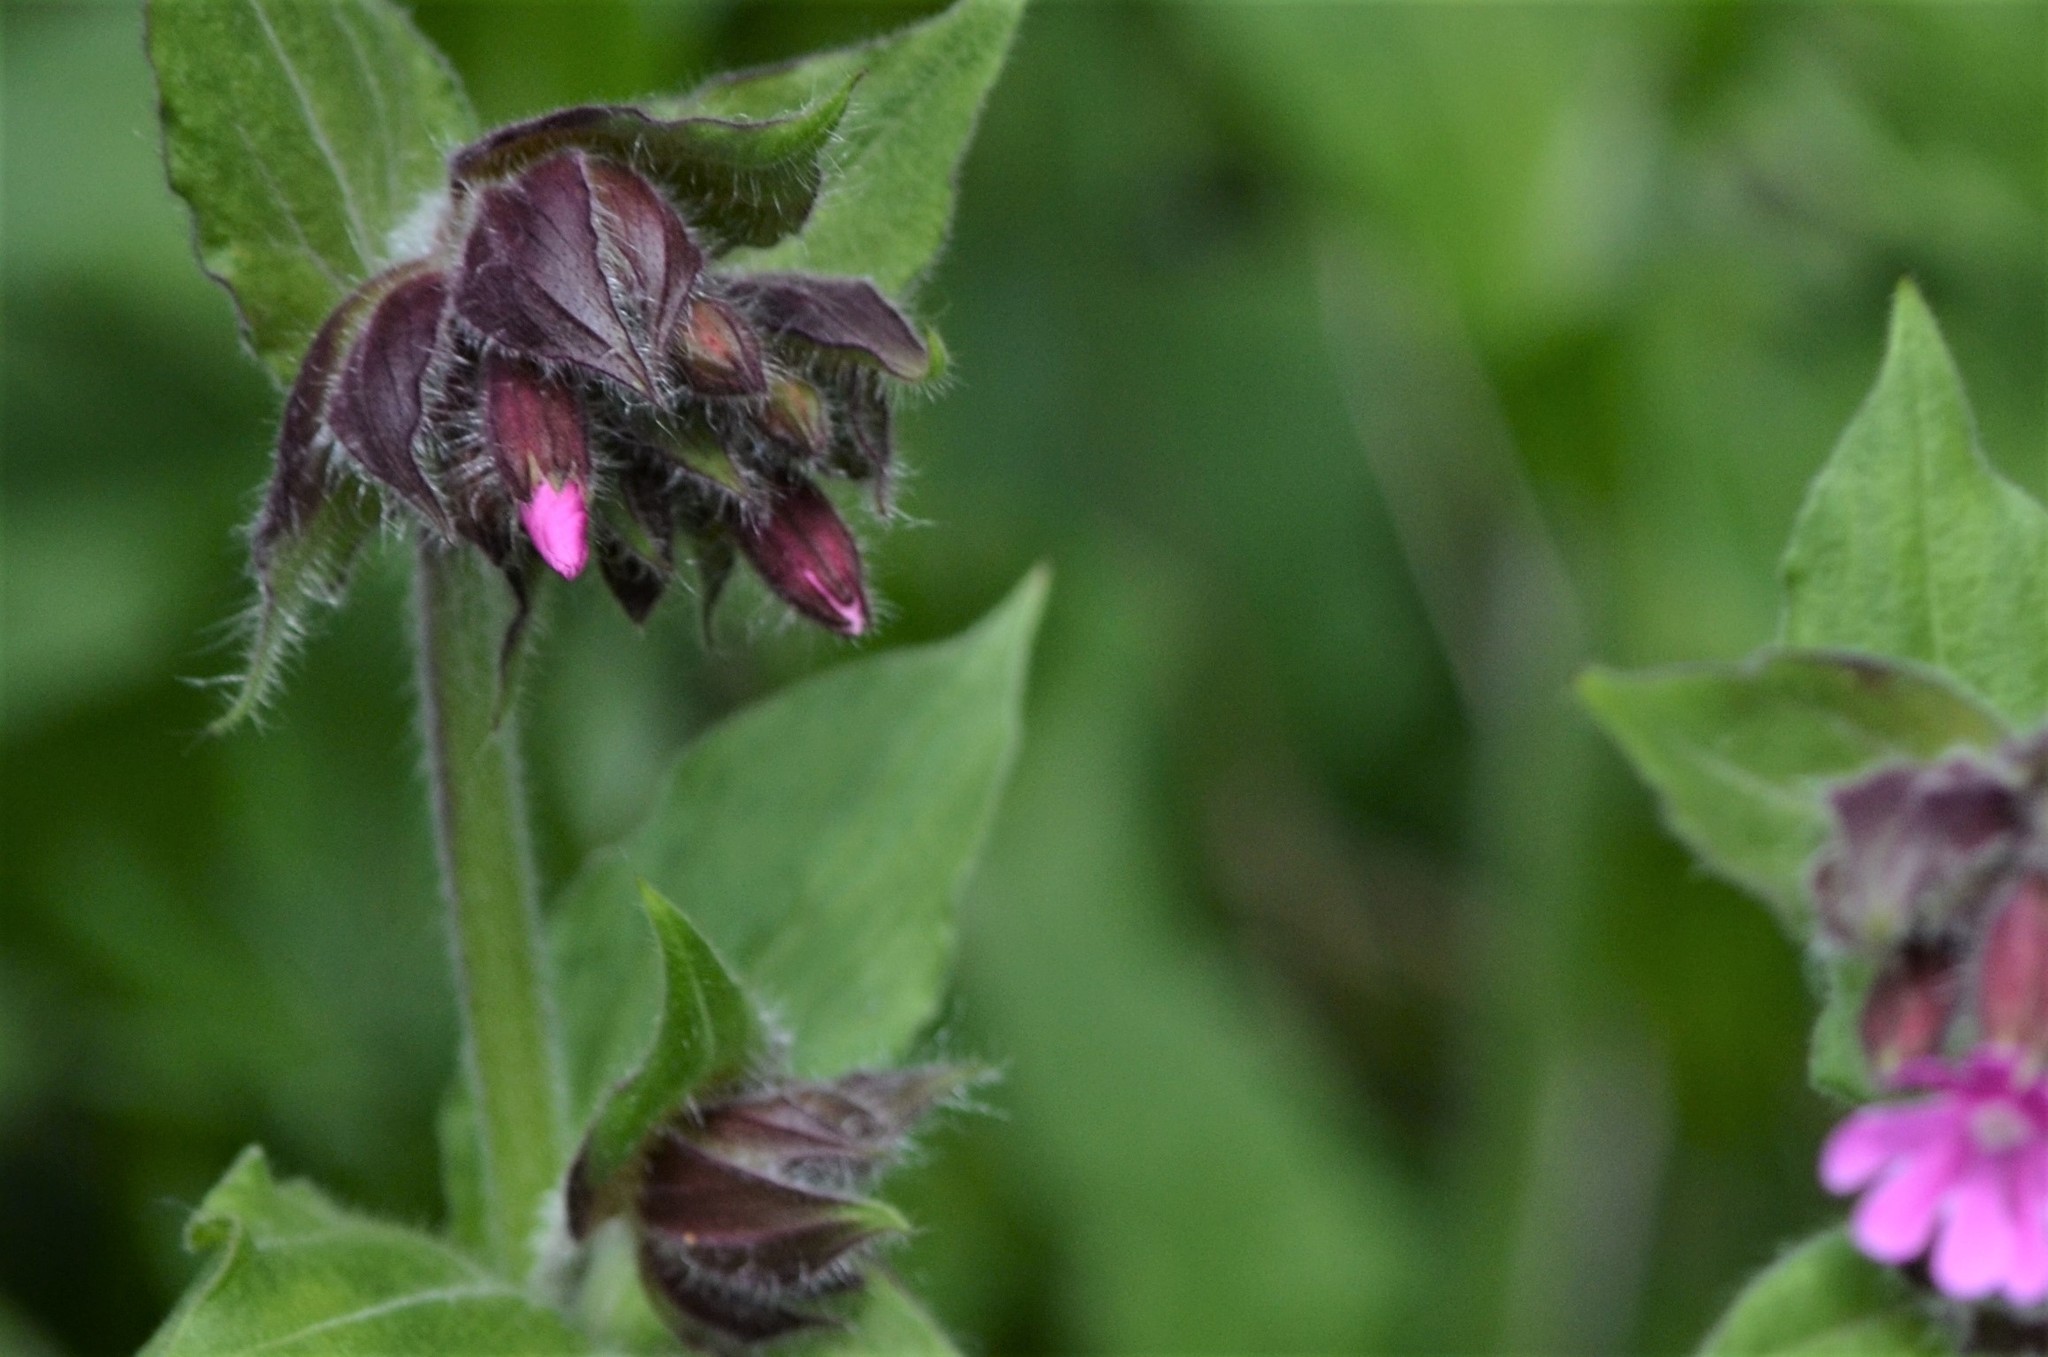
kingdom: Plantae
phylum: Tracheophyta
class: Magnoliopsida
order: Caryophyllales
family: Caryophyllaceae
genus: Silene
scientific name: Silene dioica
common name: Red campion
